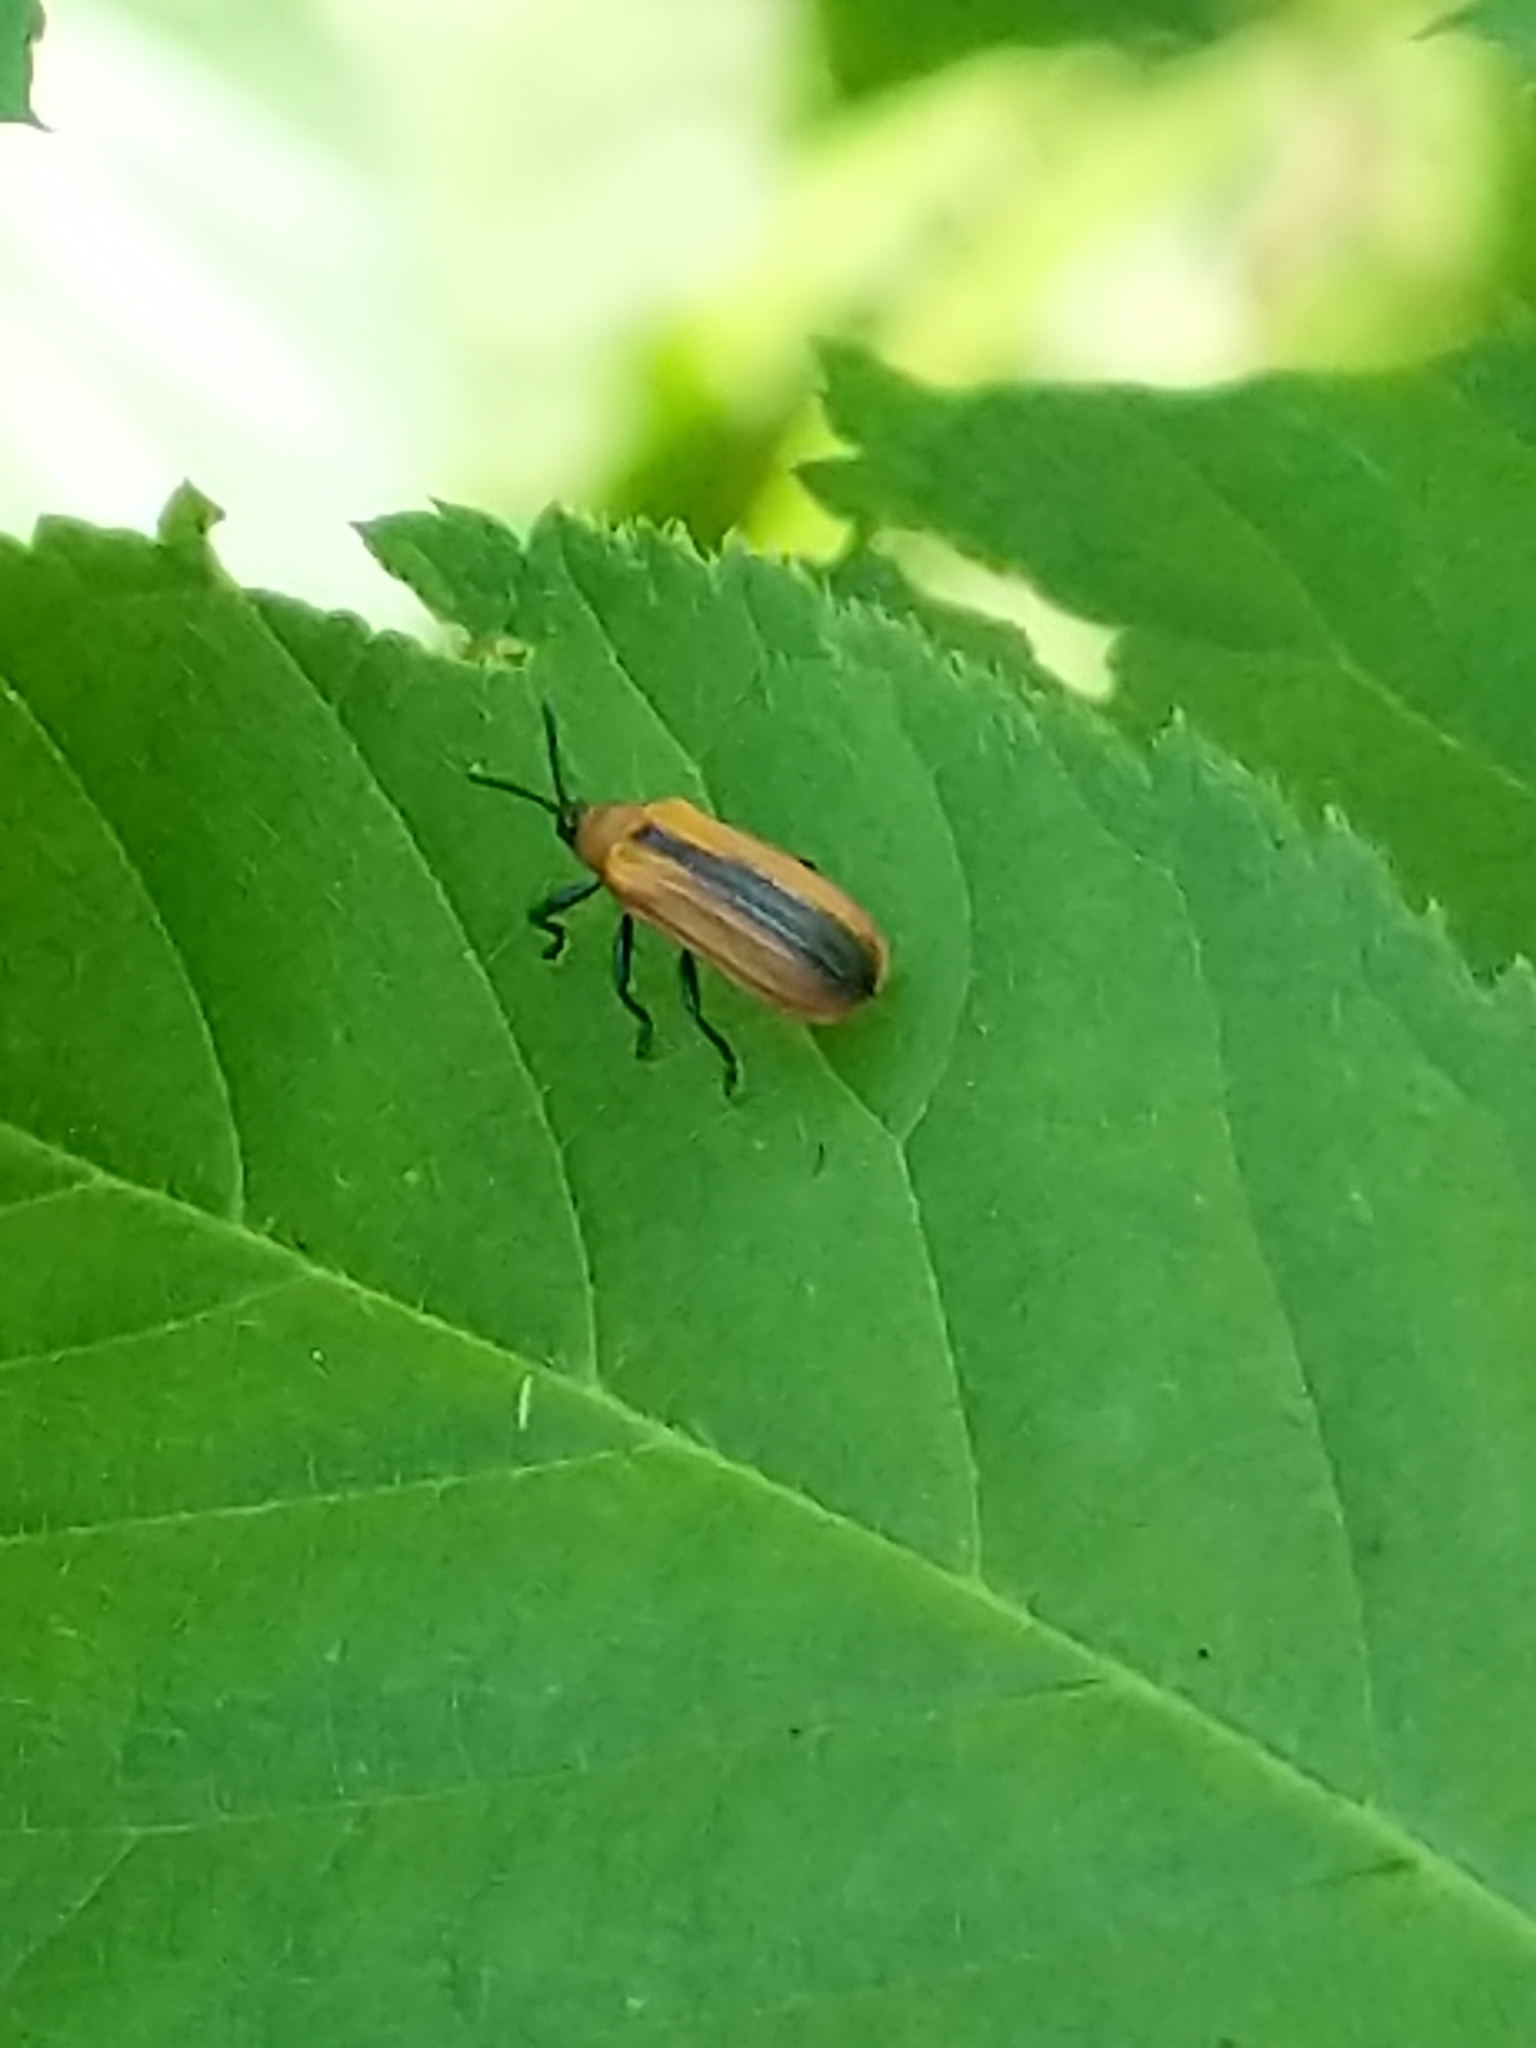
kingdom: Animalia
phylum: Arthropoda
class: Insecta
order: Coleoptera
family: Chrysomelidae
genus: Odontota
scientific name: Odontota dorsalis
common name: Locust leaf-miner beetle
